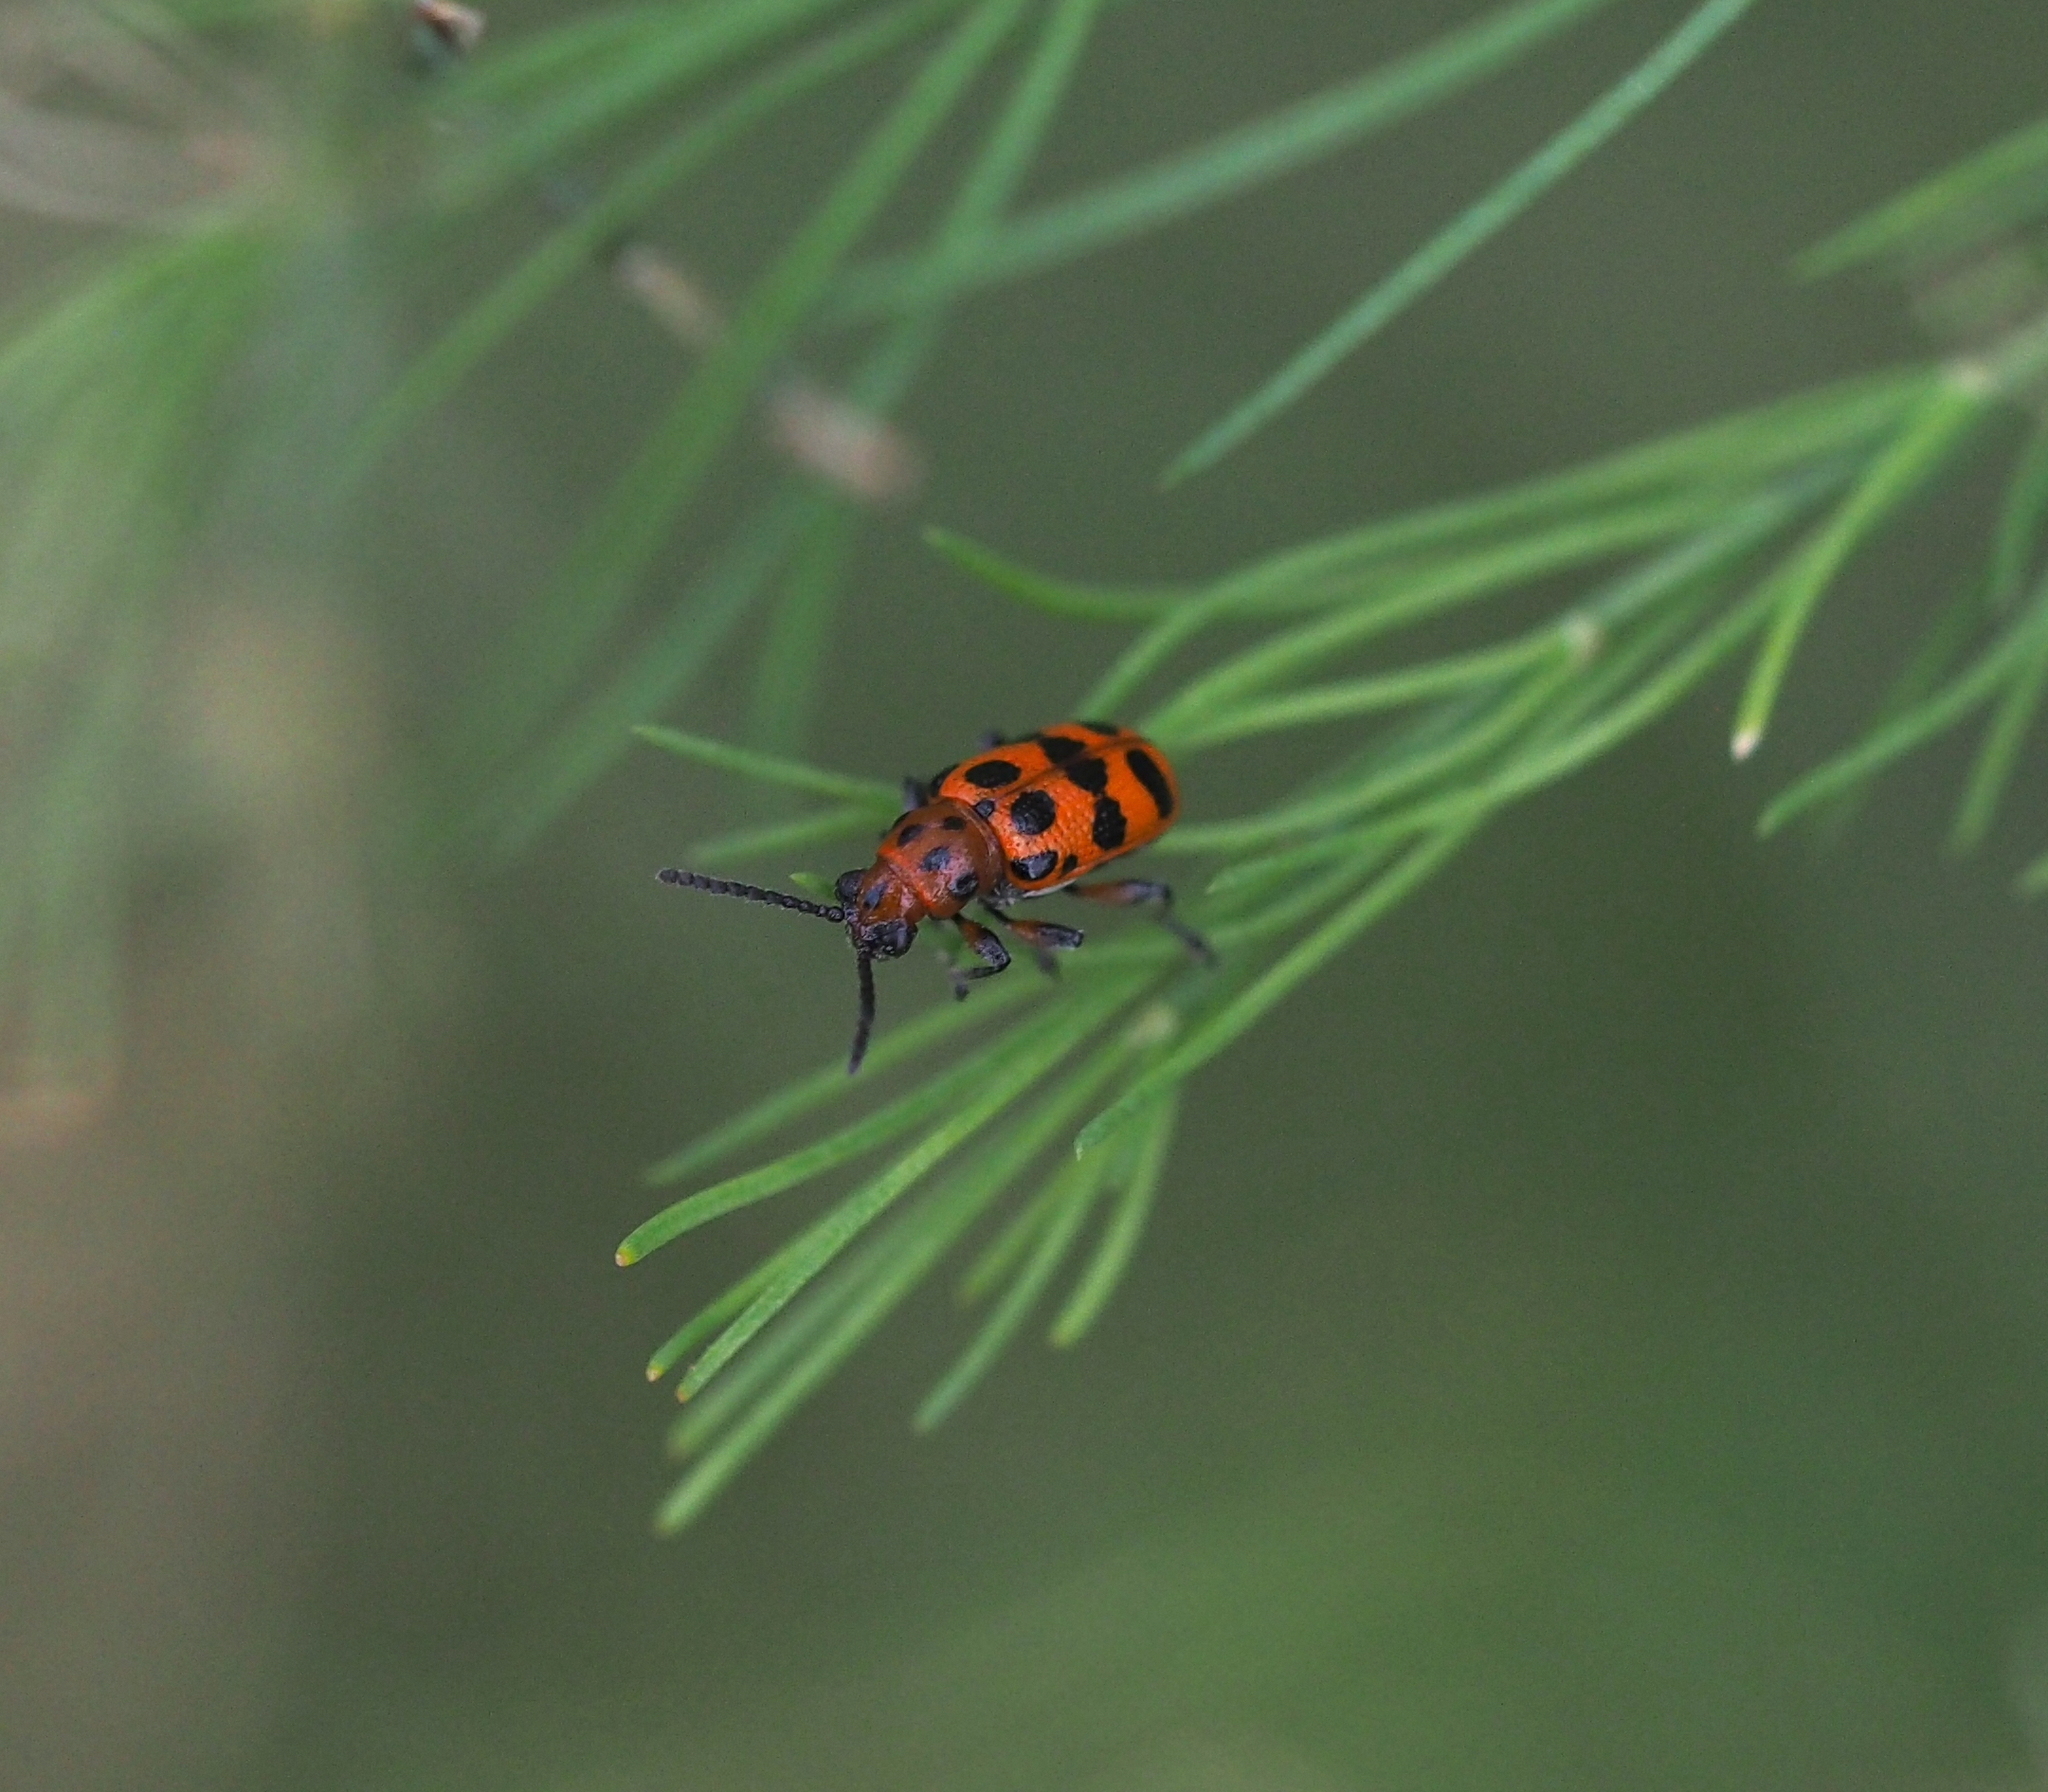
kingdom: Animalia
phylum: Arthropoda
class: Insecta
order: Coleoptera
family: Chrysomelidae
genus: Crioceris
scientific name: Crioceris quatuordecimpunctata
